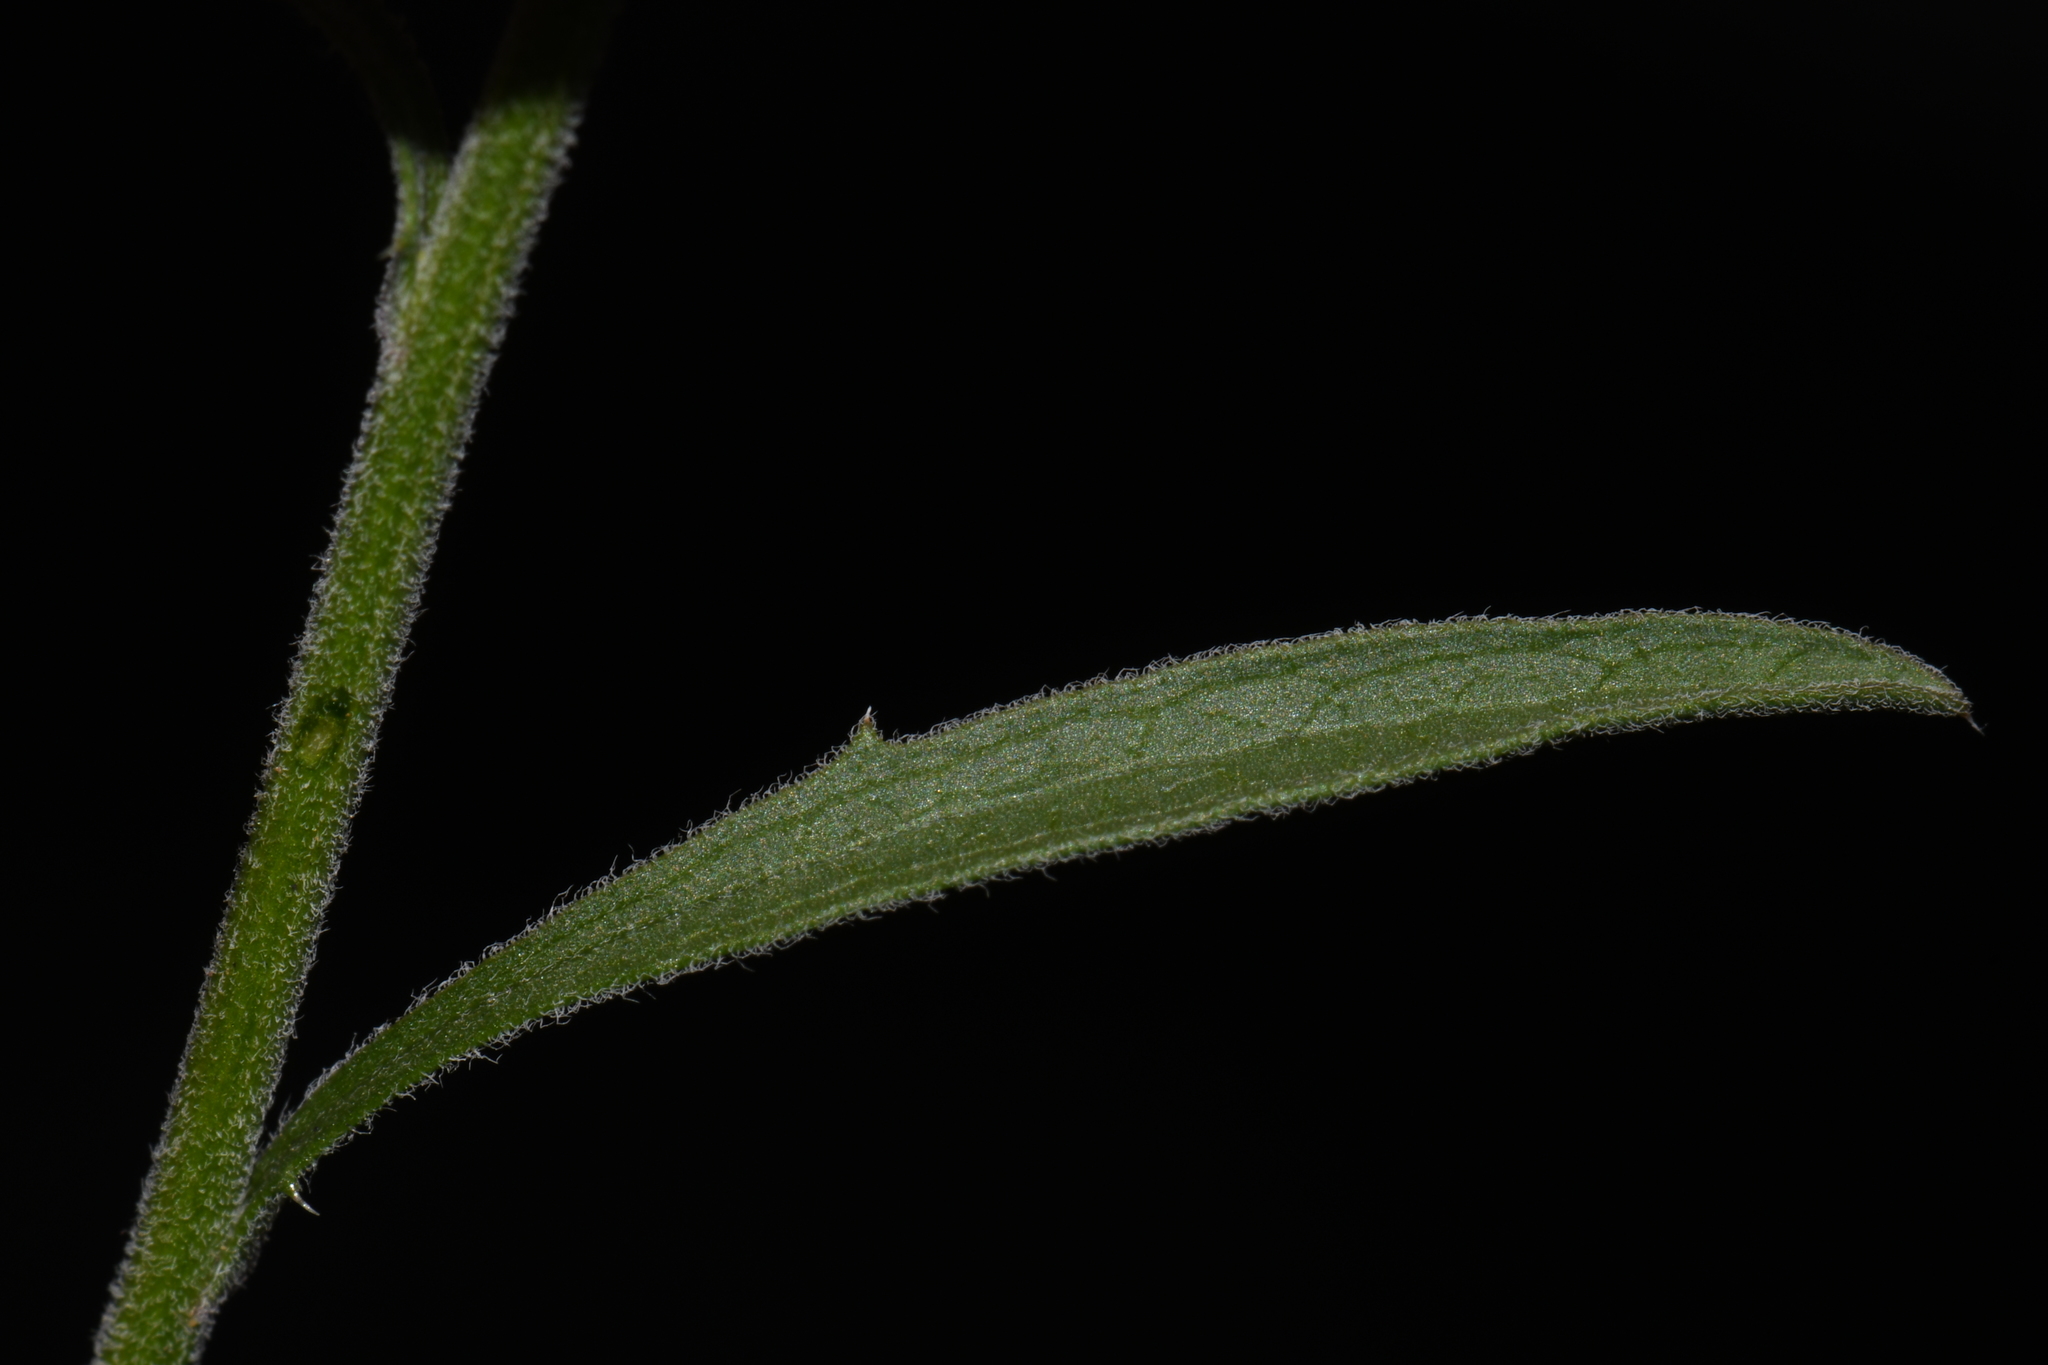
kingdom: Plantae
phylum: Tracheophyta
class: Magnoliopsida
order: Asterales
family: Asteraceae
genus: Dieteria
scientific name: Dieteria canescens
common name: Hoary-aster
